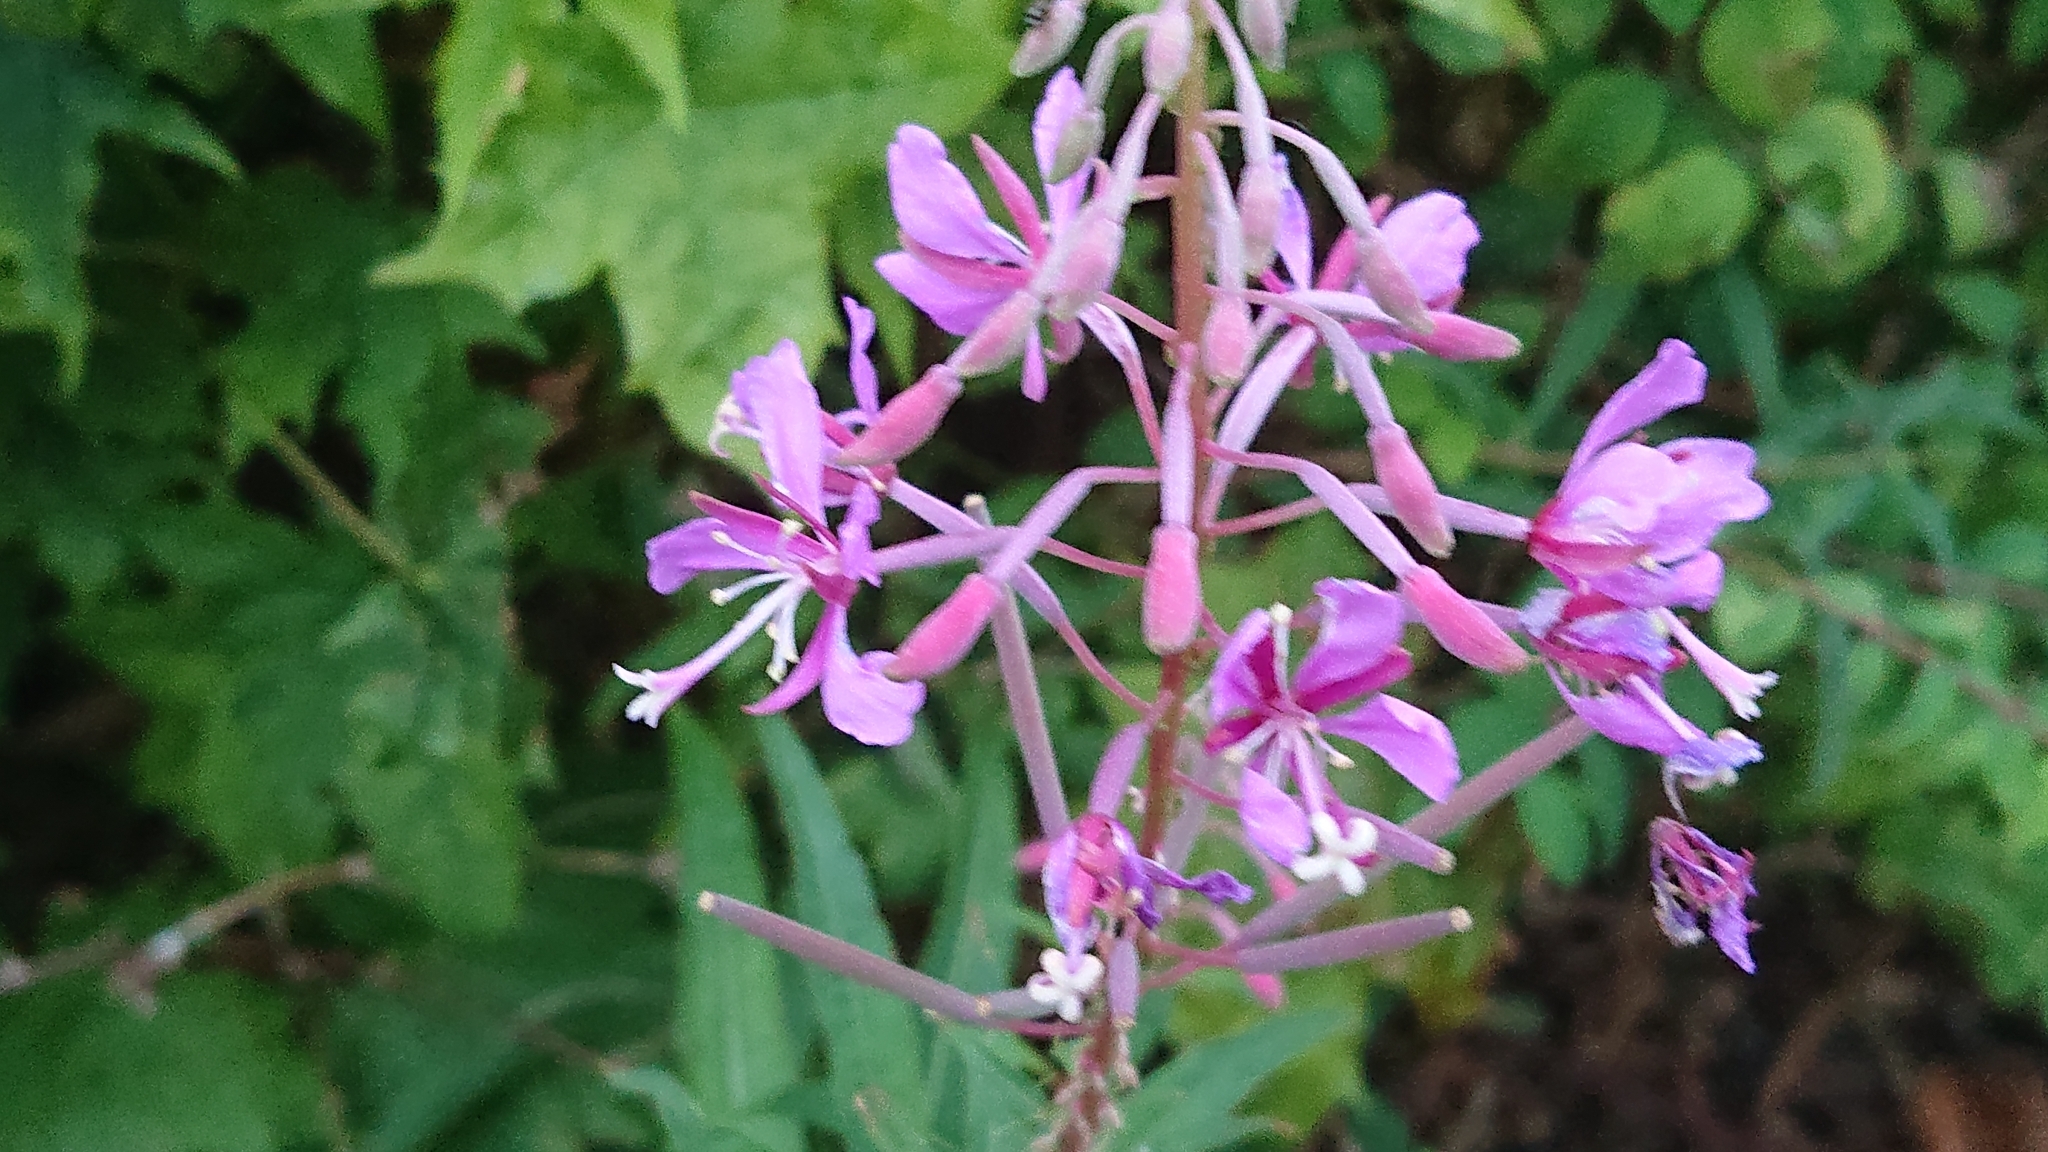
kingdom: Plantae
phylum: Tracheophyta
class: Magnoliopsida
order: Myrtales
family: Onagraceae
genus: Chamaenerion
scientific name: Chamaenerion angustifolium
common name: Fireweed
